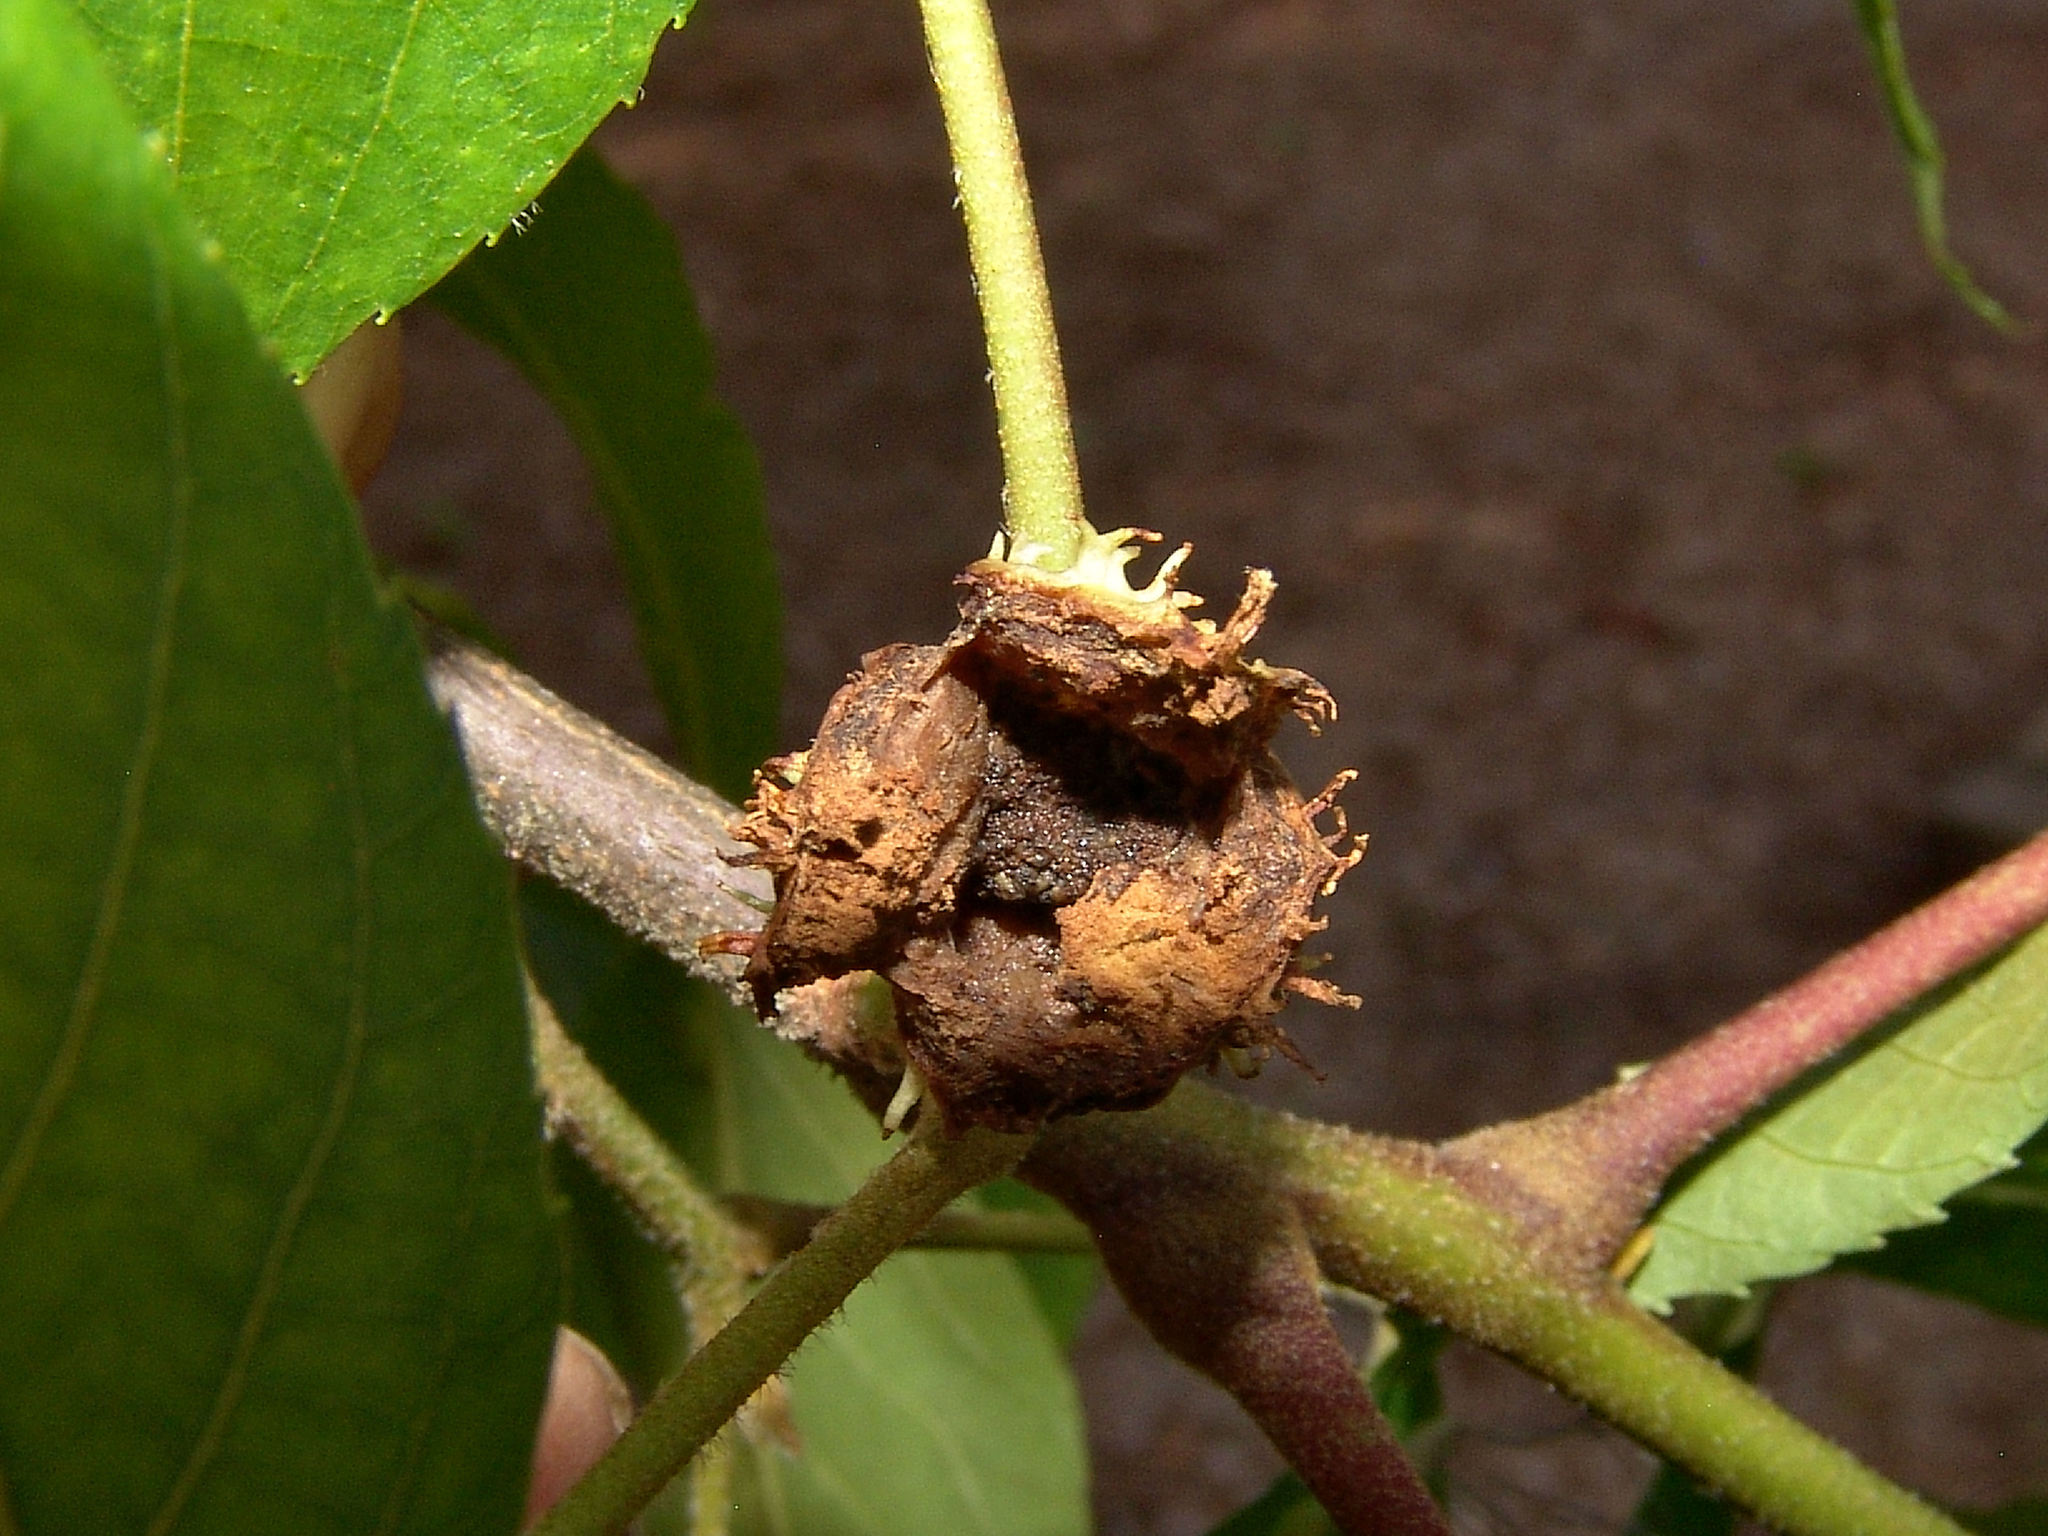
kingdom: Animalia
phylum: Arthropoda
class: Insecta
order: Hemiptera
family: Phylloxeridae
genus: Phylloxera
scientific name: Phylloxera spinosa
